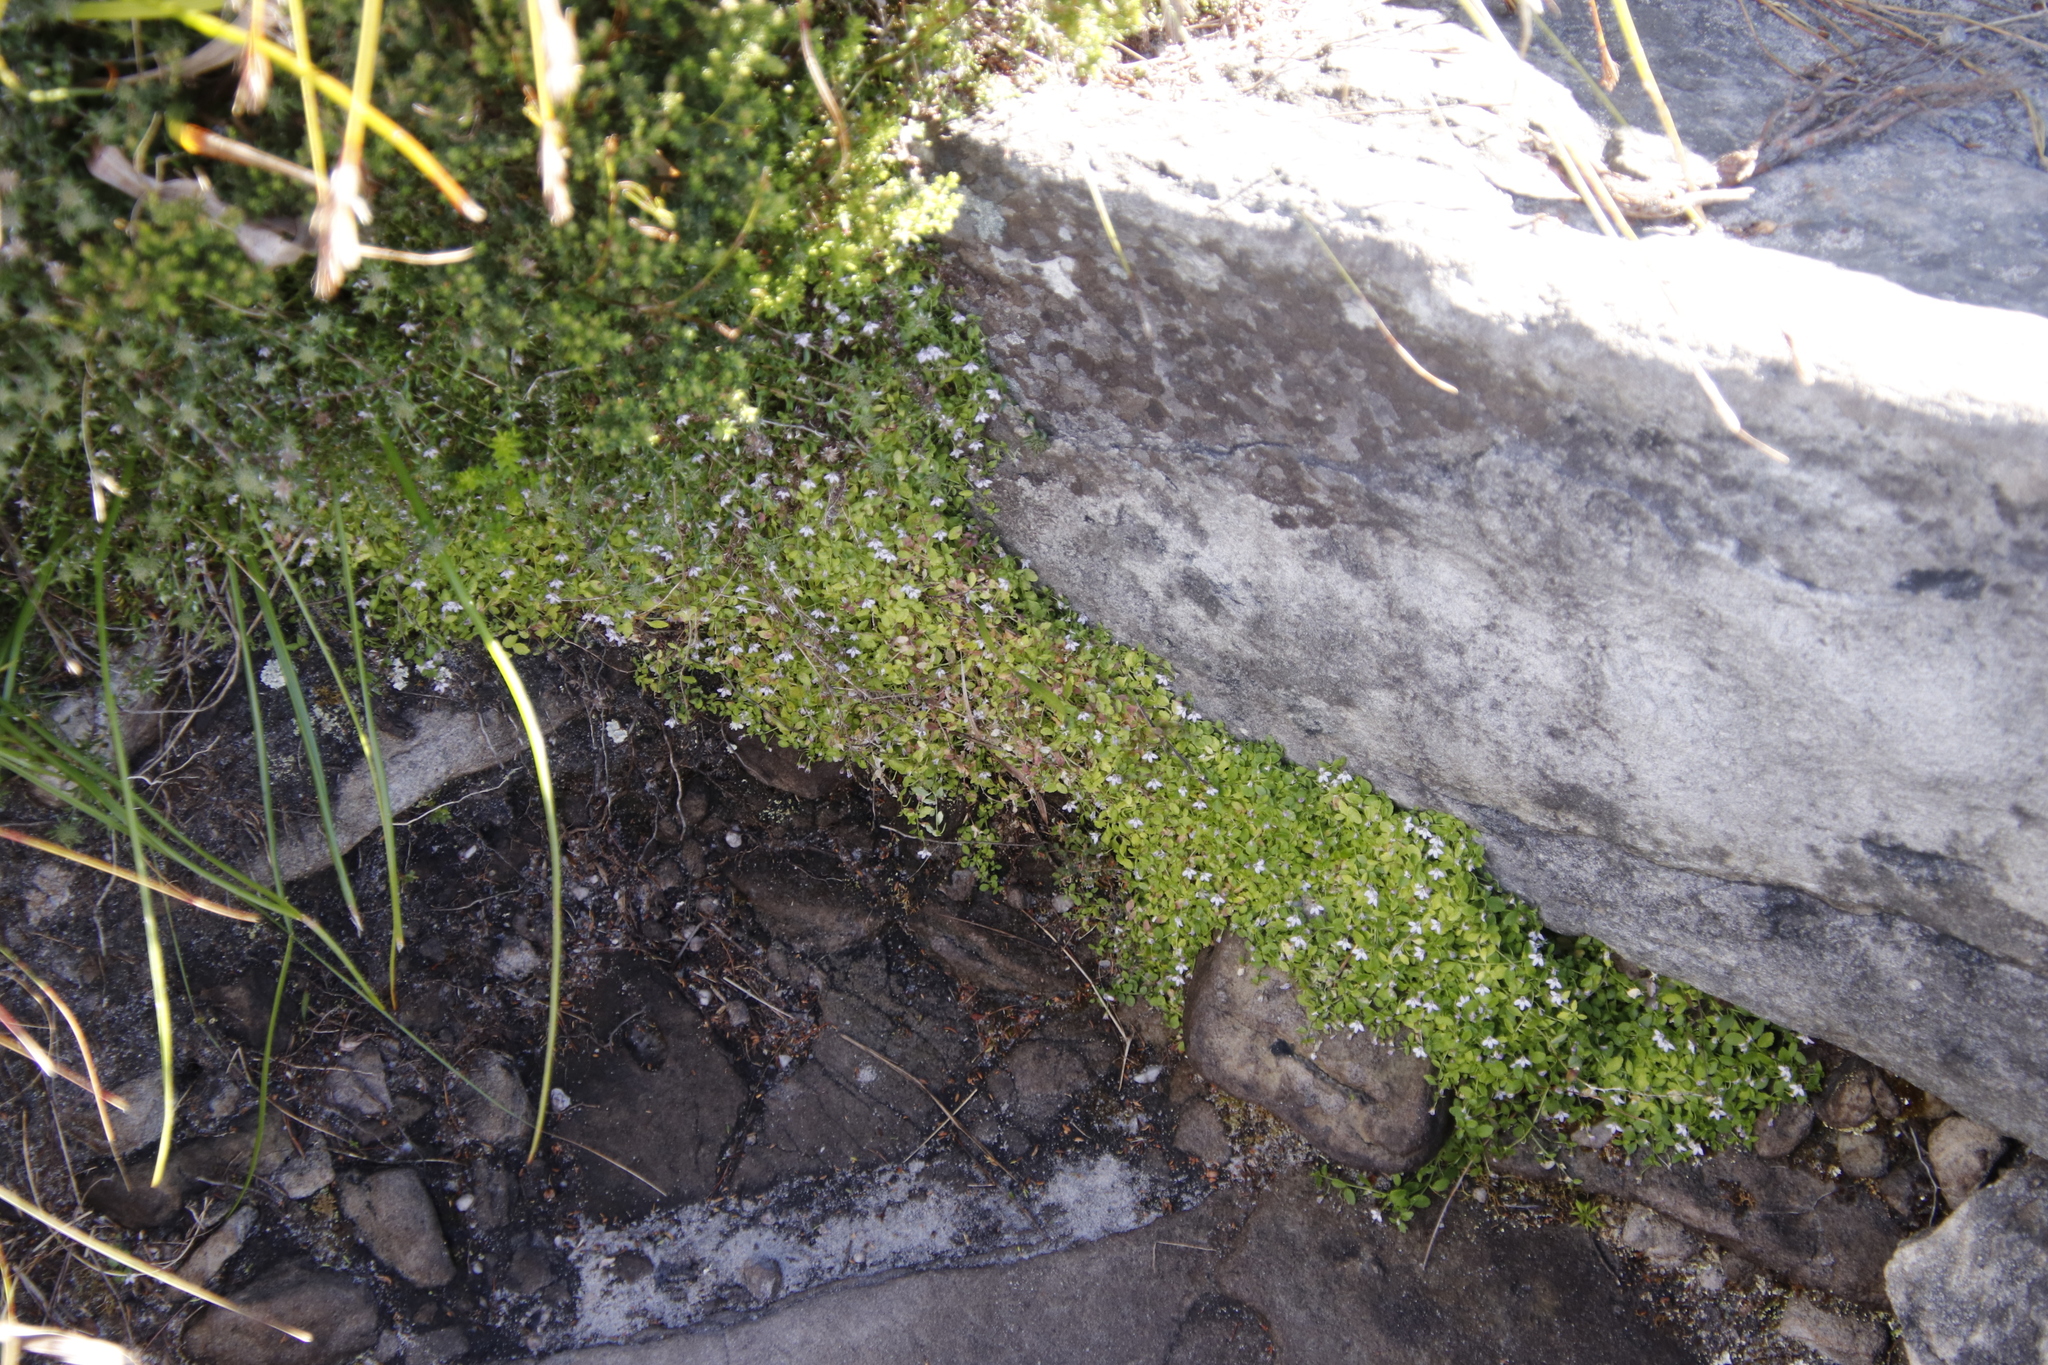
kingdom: Plantae
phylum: Tracheophyta
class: Magnoliopsida
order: Asterales
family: Campanulaceae
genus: Unigenes
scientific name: Unigenes humifusa
